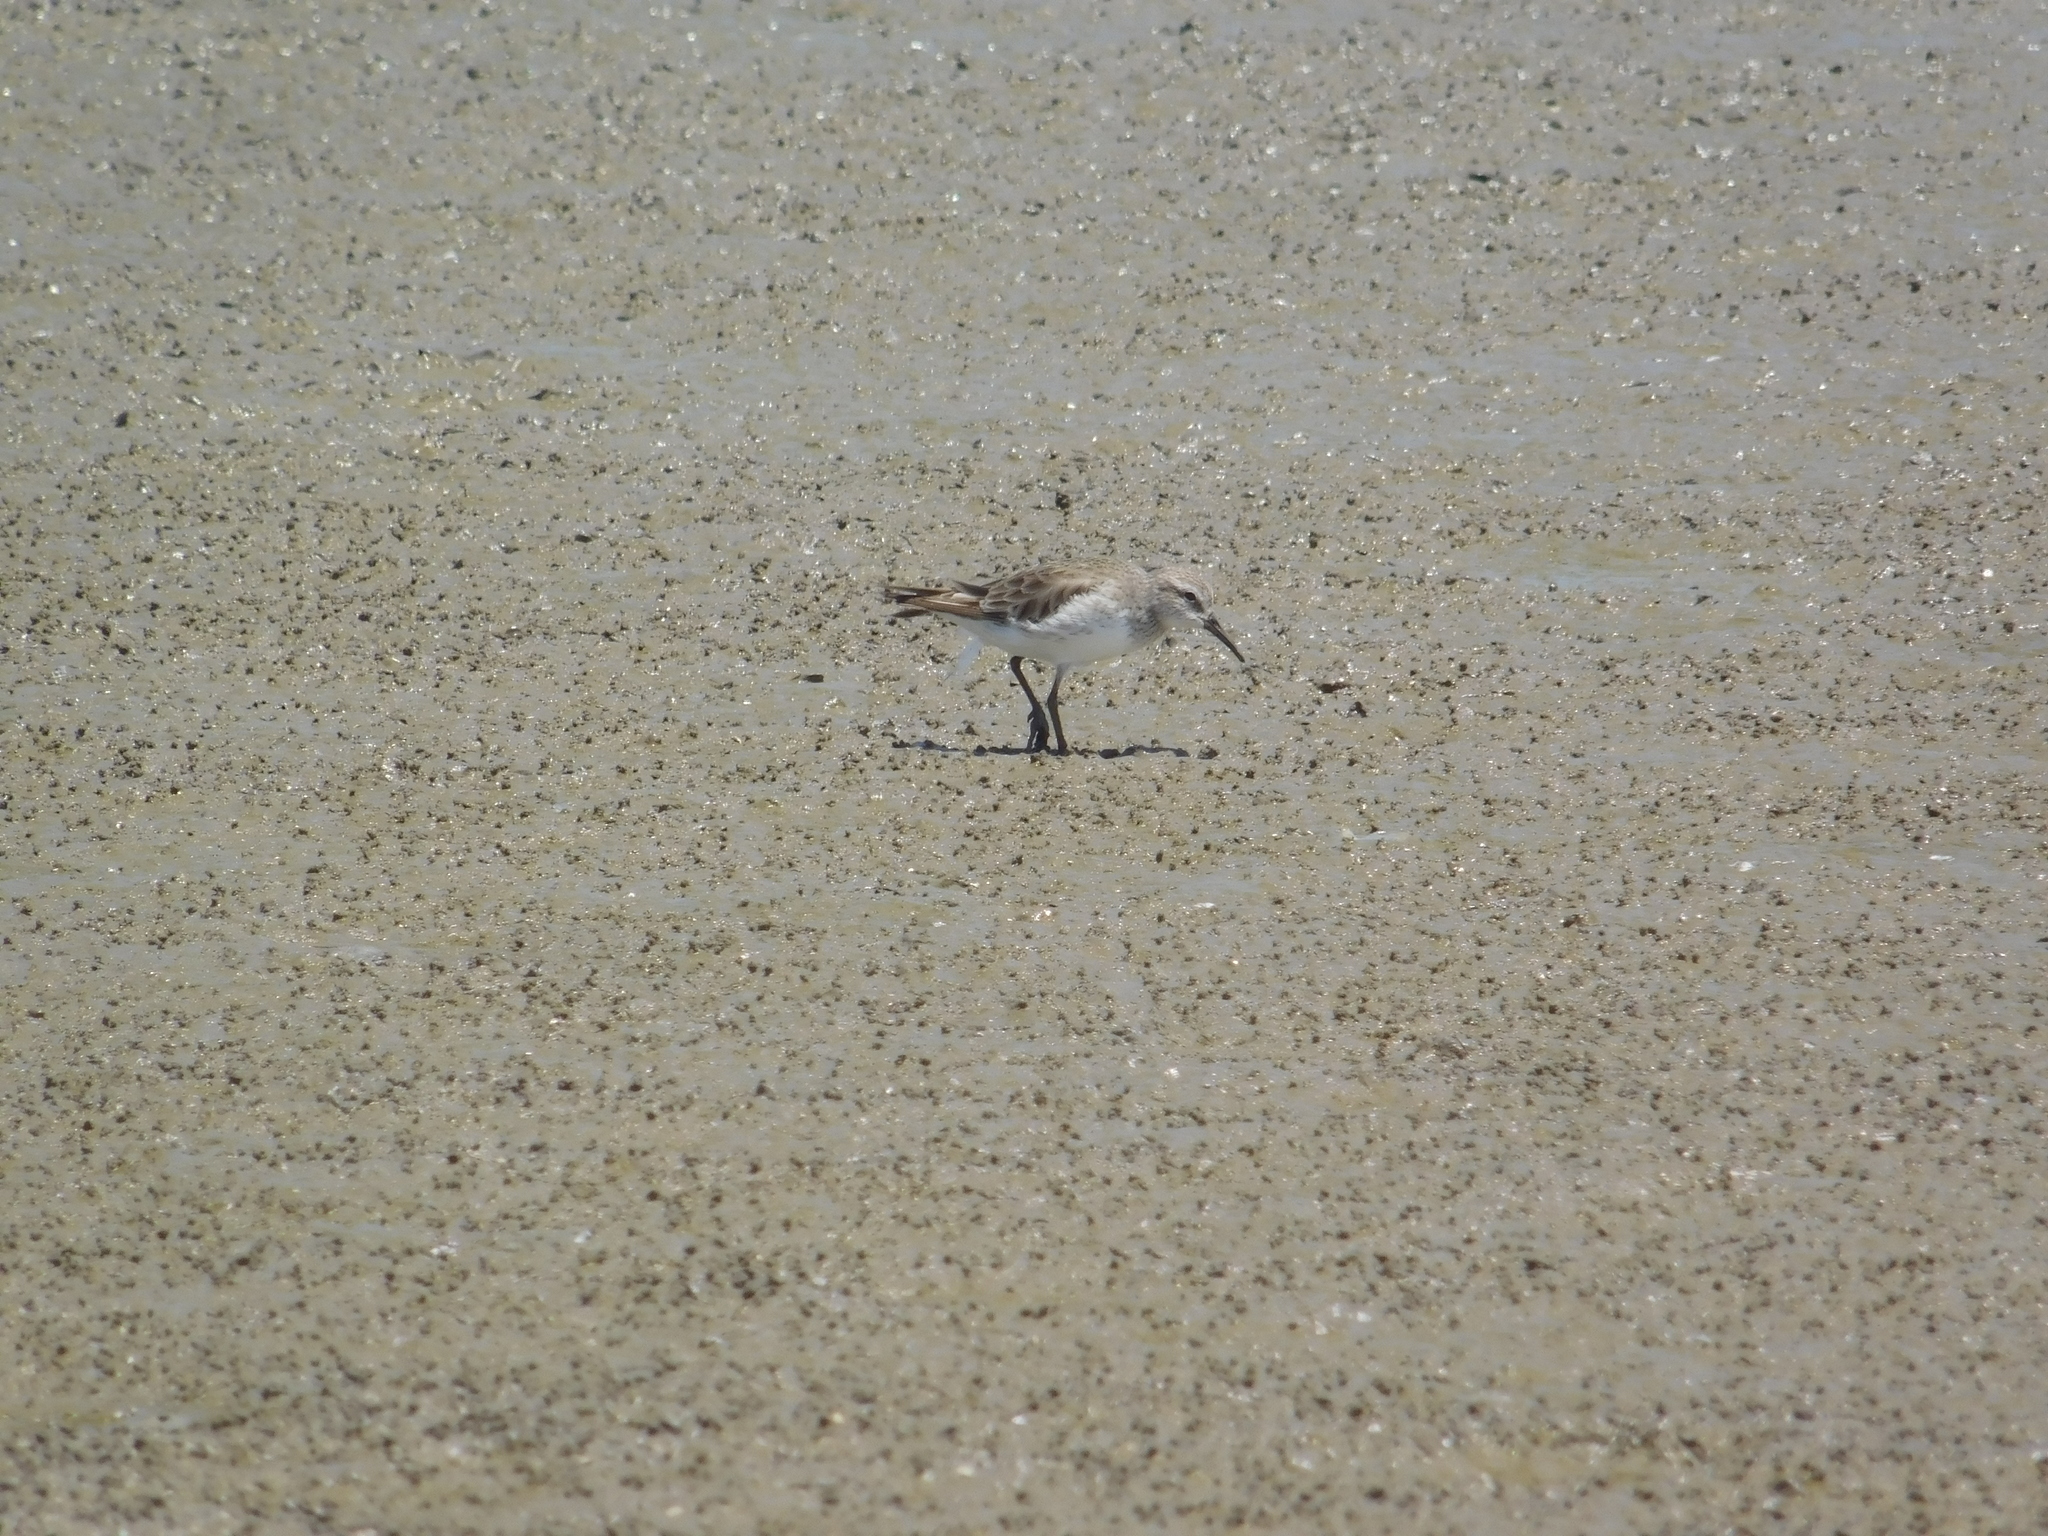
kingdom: Animalia
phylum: Chordata
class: Aves
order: Charadriiformes
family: Scolopacidae
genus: Calidris
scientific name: Calidris fuscicollis
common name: White-rumped sandpiper
